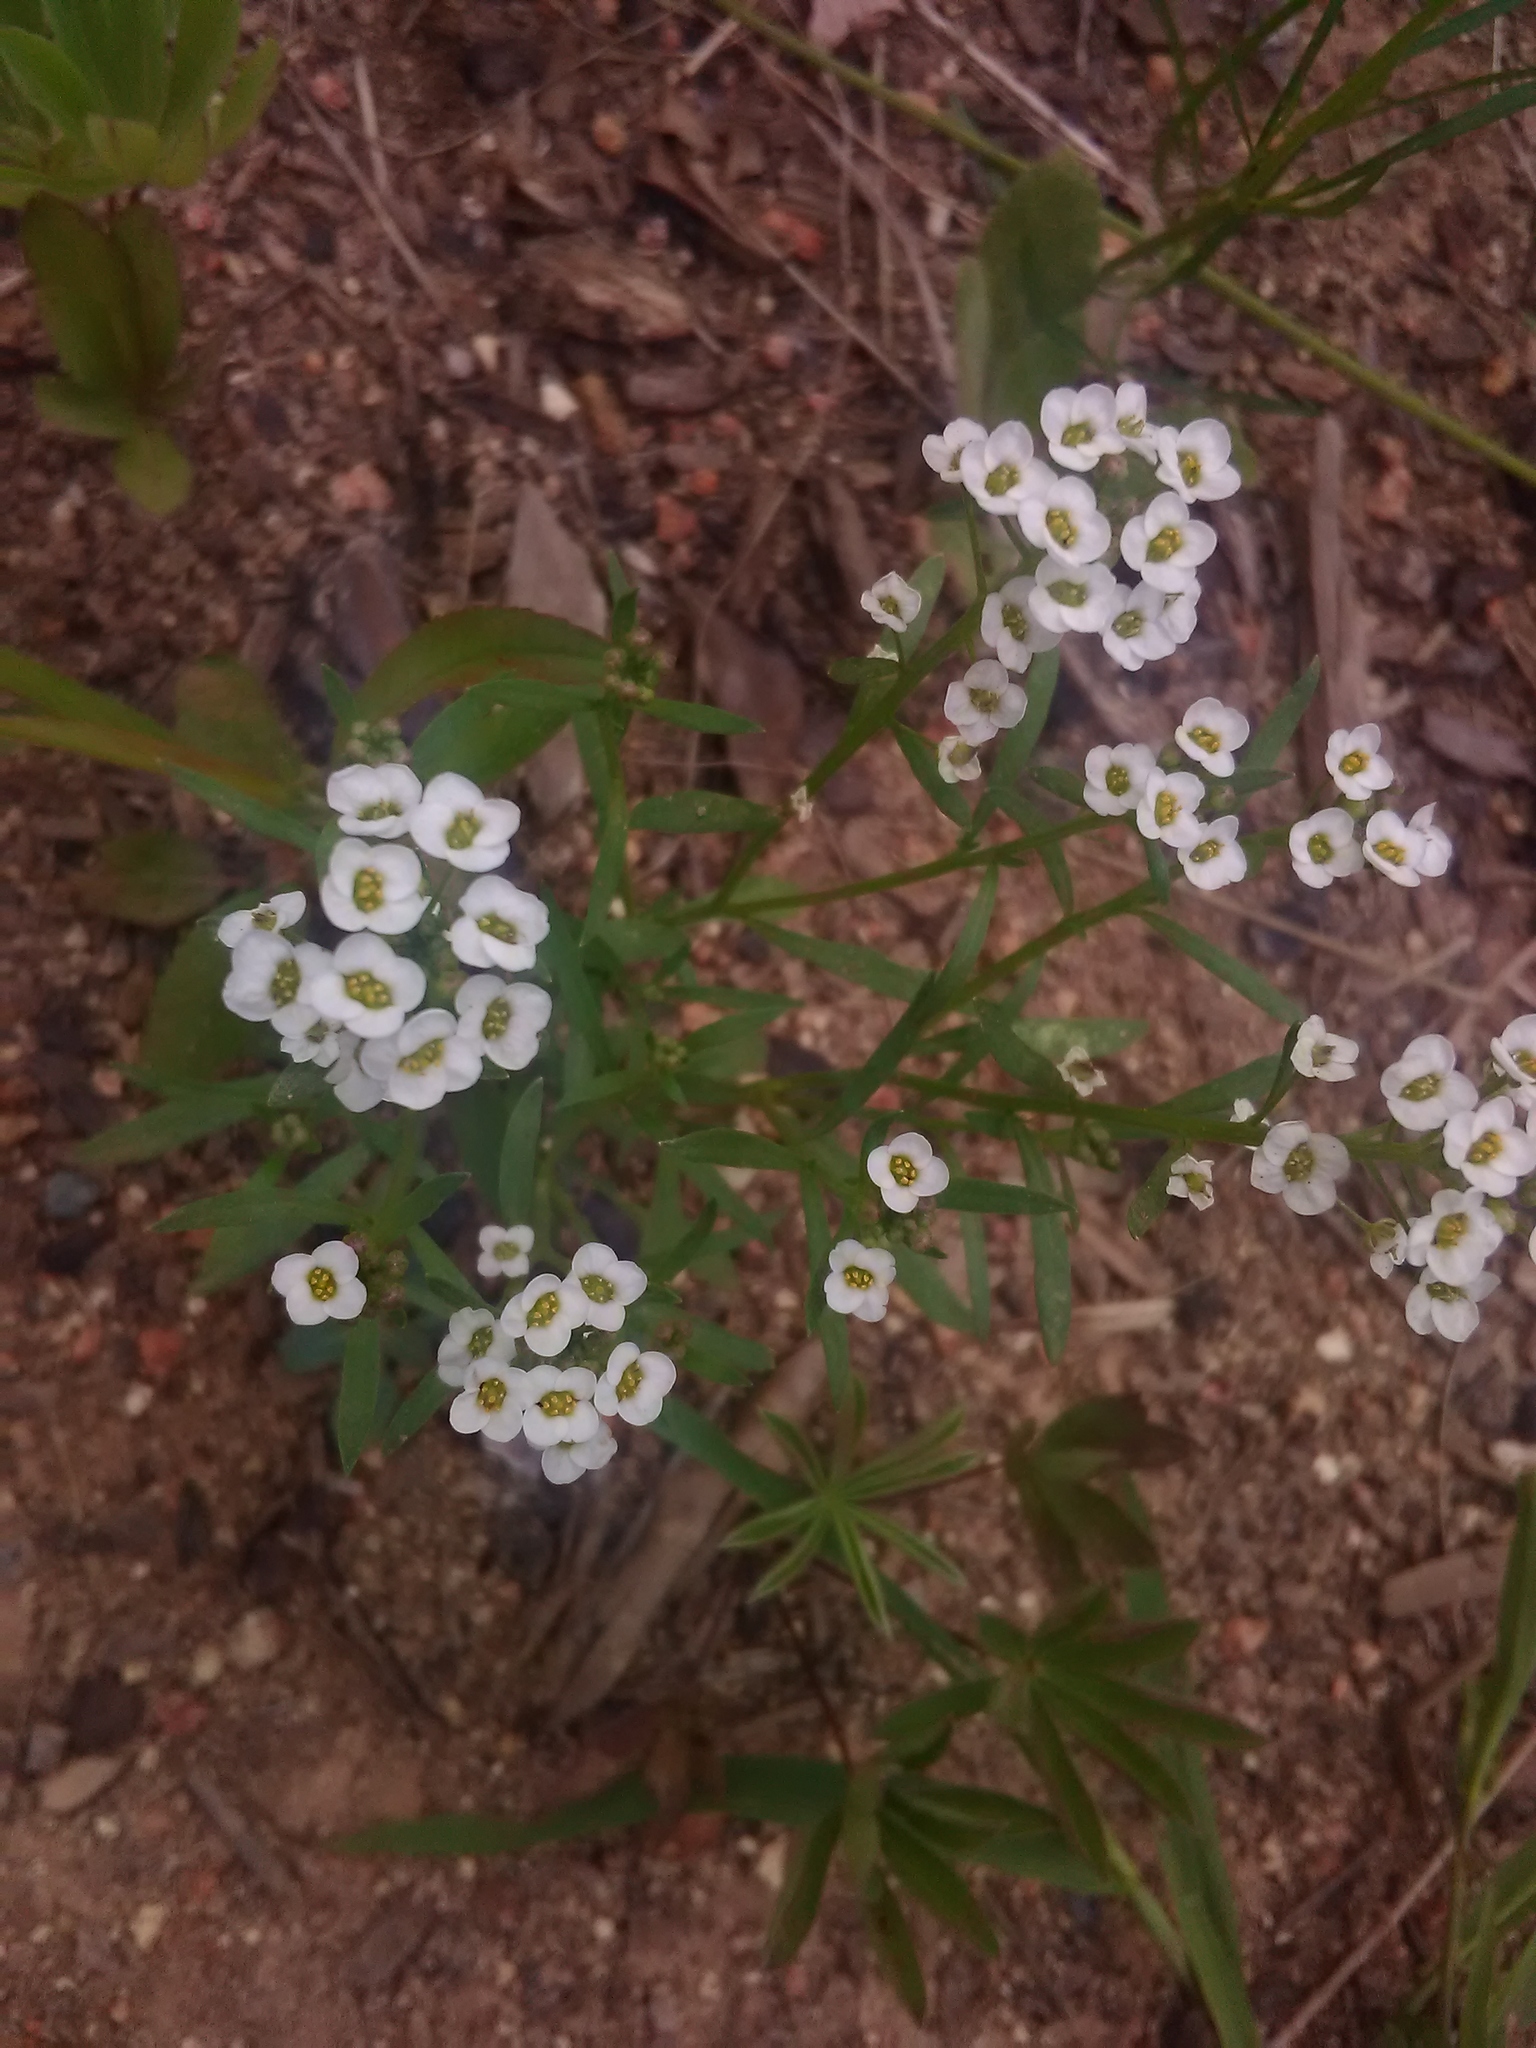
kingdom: Plantae
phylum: Tracheophyta
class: Magnoliopsida
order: Brassicales
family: Brassicaceae
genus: Lobularia
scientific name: Lobularia maritima
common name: Sweet alison
